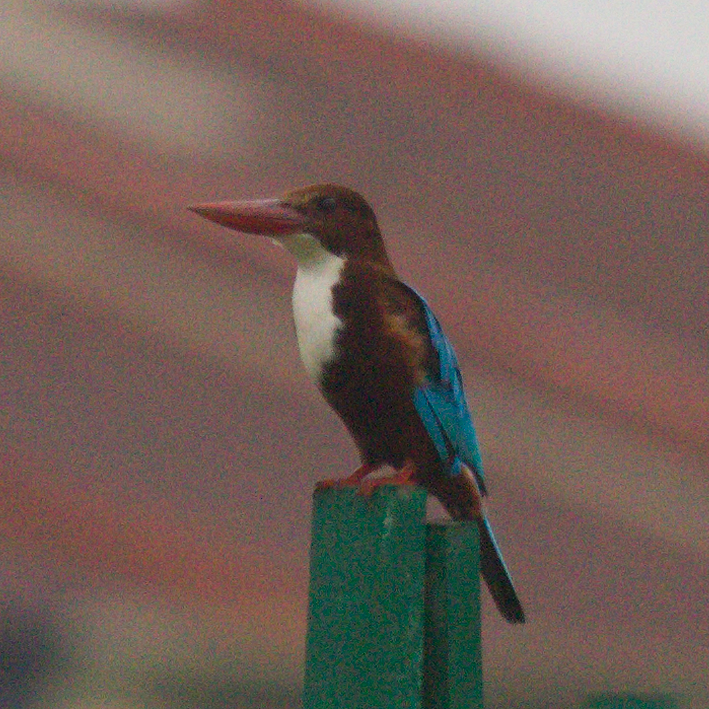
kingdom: Animalia
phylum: Chordata
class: Aves
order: Coraciiformes
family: Alcedinidae
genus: Halcyon
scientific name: Halcyon smyrnensis
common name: White-throated kingfisher
